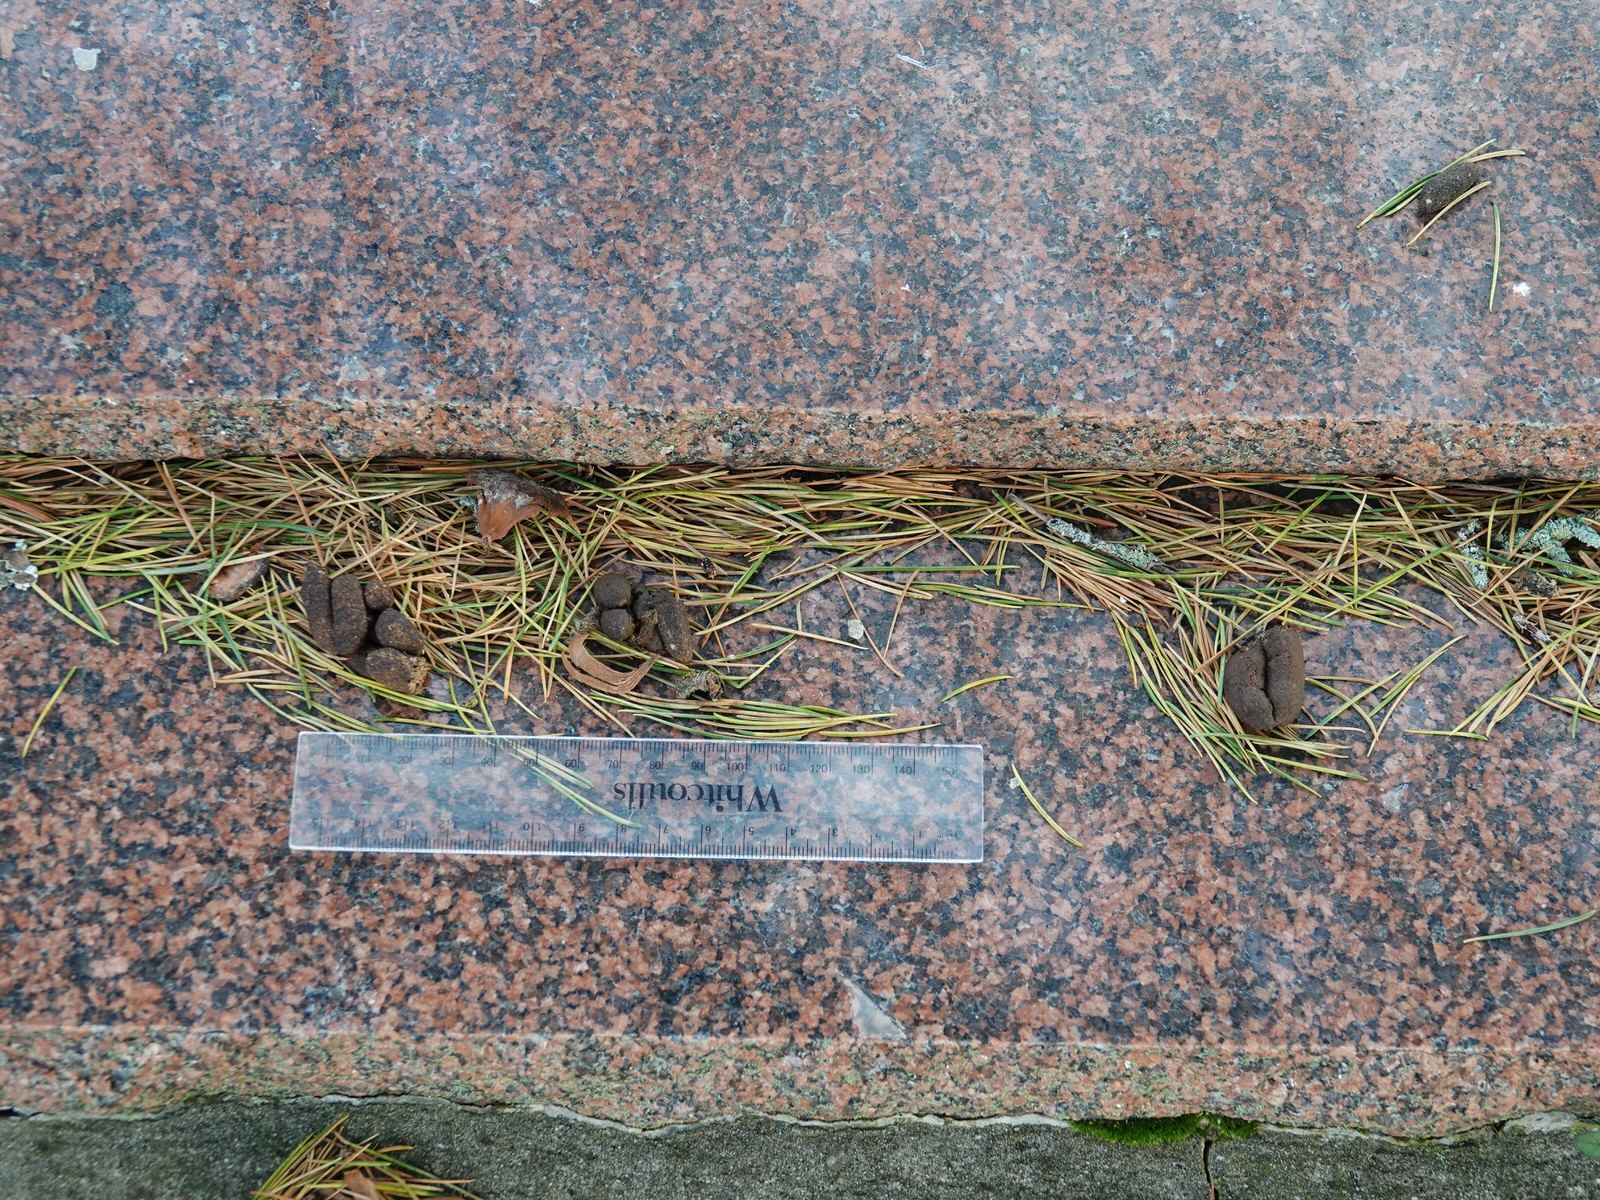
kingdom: Animalia
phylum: Chordata
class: Mammalia
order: Diprotodontia
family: Phalangeridae
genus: Trichosurus
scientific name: Trichosurus vulpecula
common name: Common brushtail
